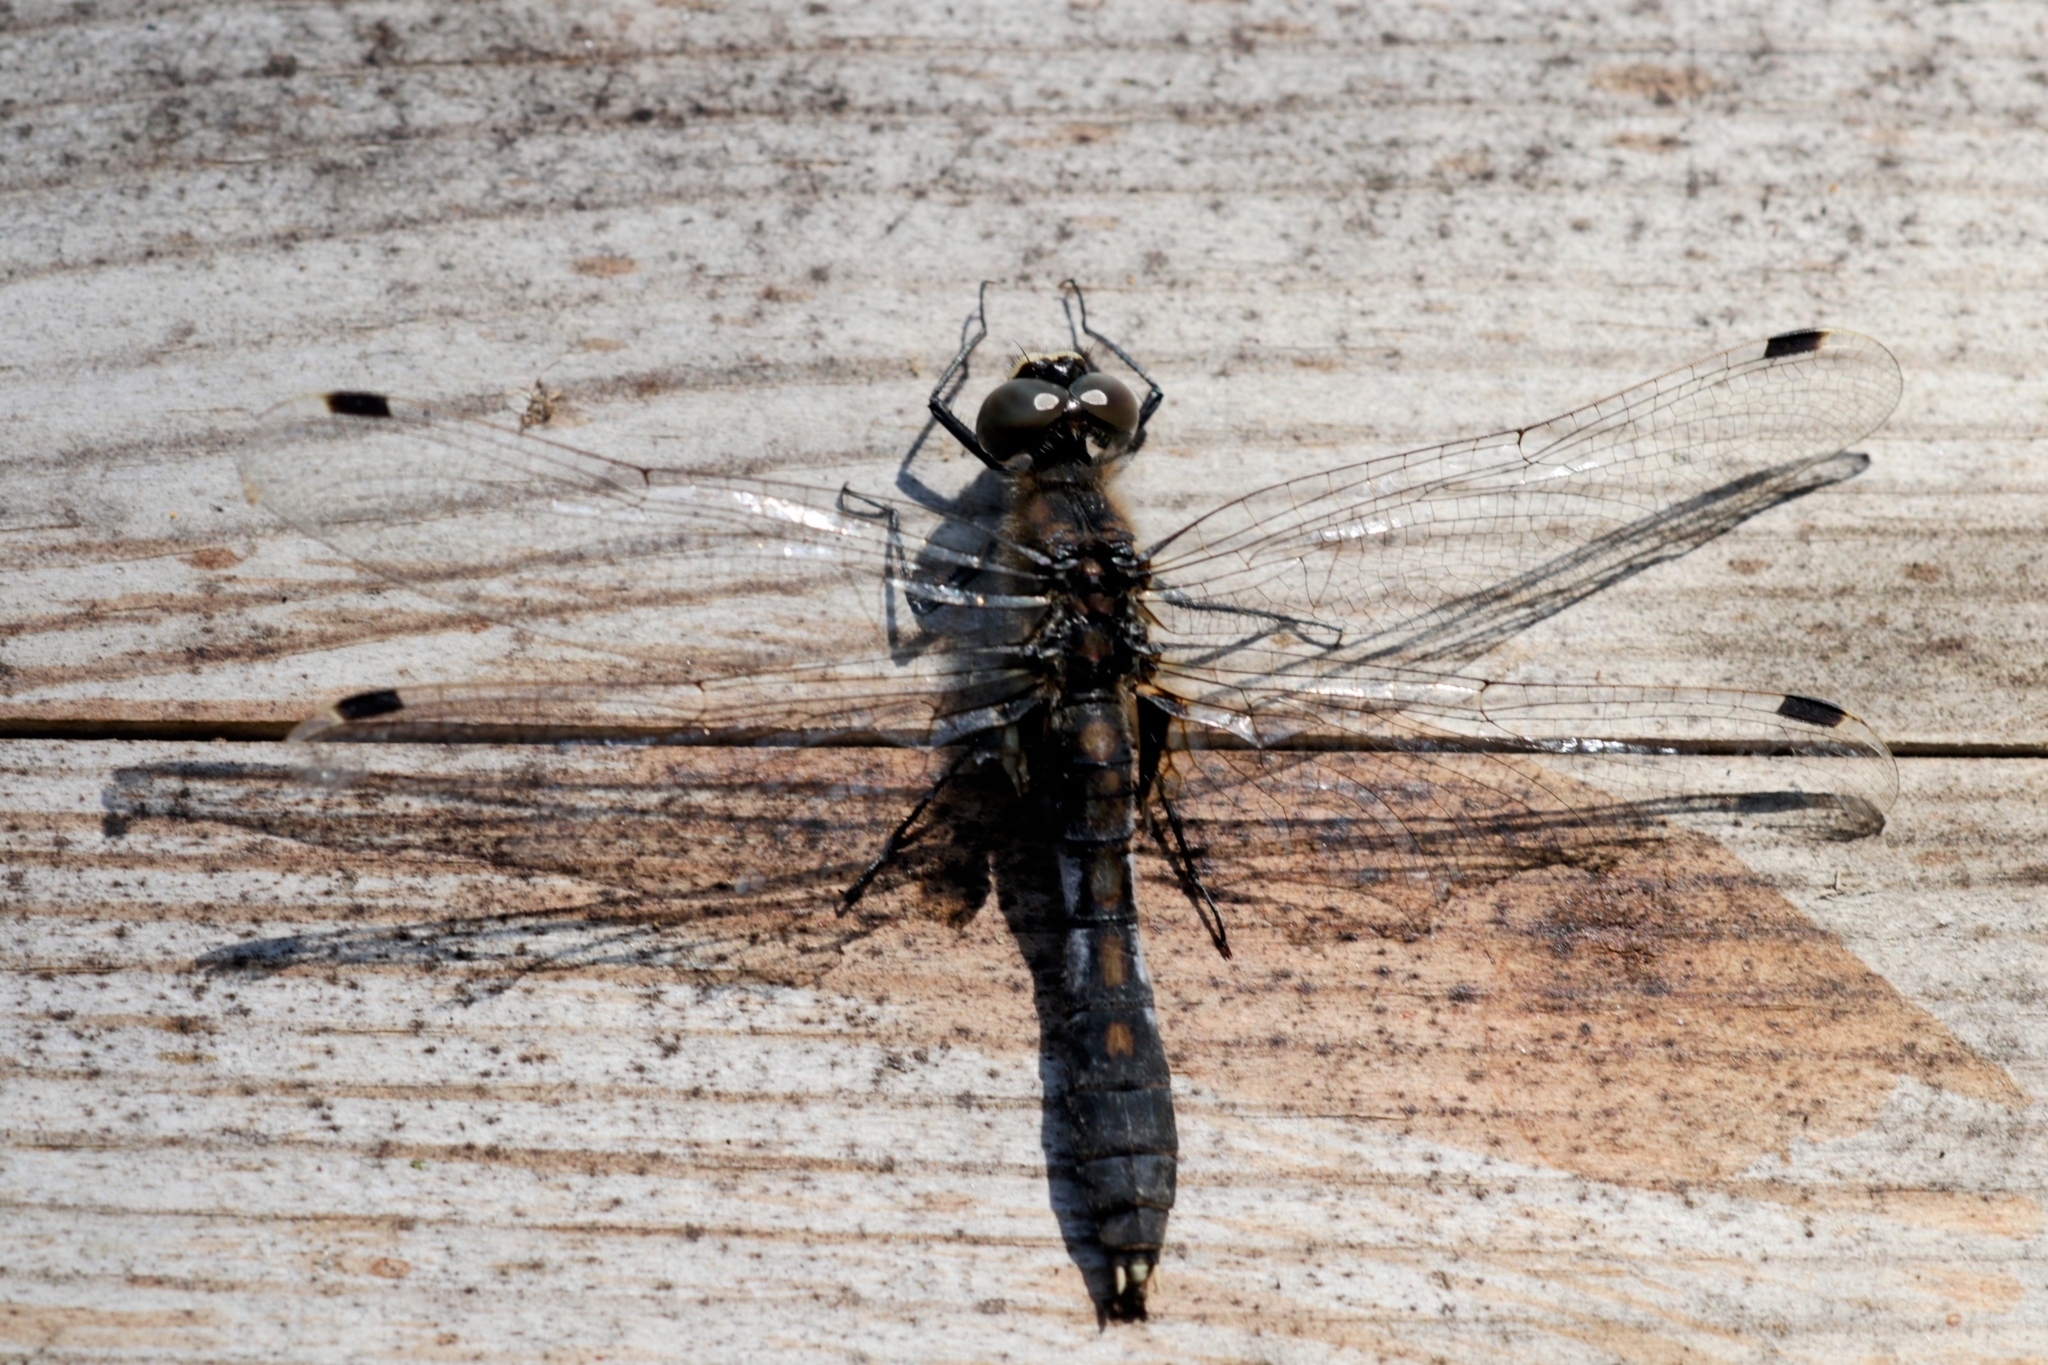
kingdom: Animalia
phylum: Arthropoda
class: Insecta
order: Odonata
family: Libellulidae
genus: Leucorrhinia
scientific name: Leucorrhinia caudalis
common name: Lilypad whiteface
